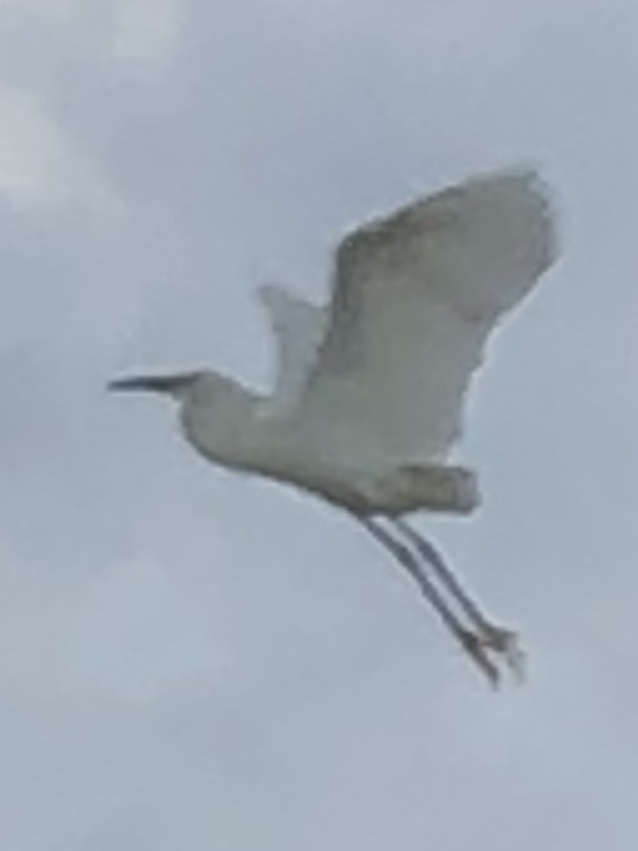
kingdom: Animalia
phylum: Chordata
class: Aves
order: Pelecaniformes
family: Ardeidae
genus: Egretta
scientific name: Egretta caerulea
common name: Little blue heron
